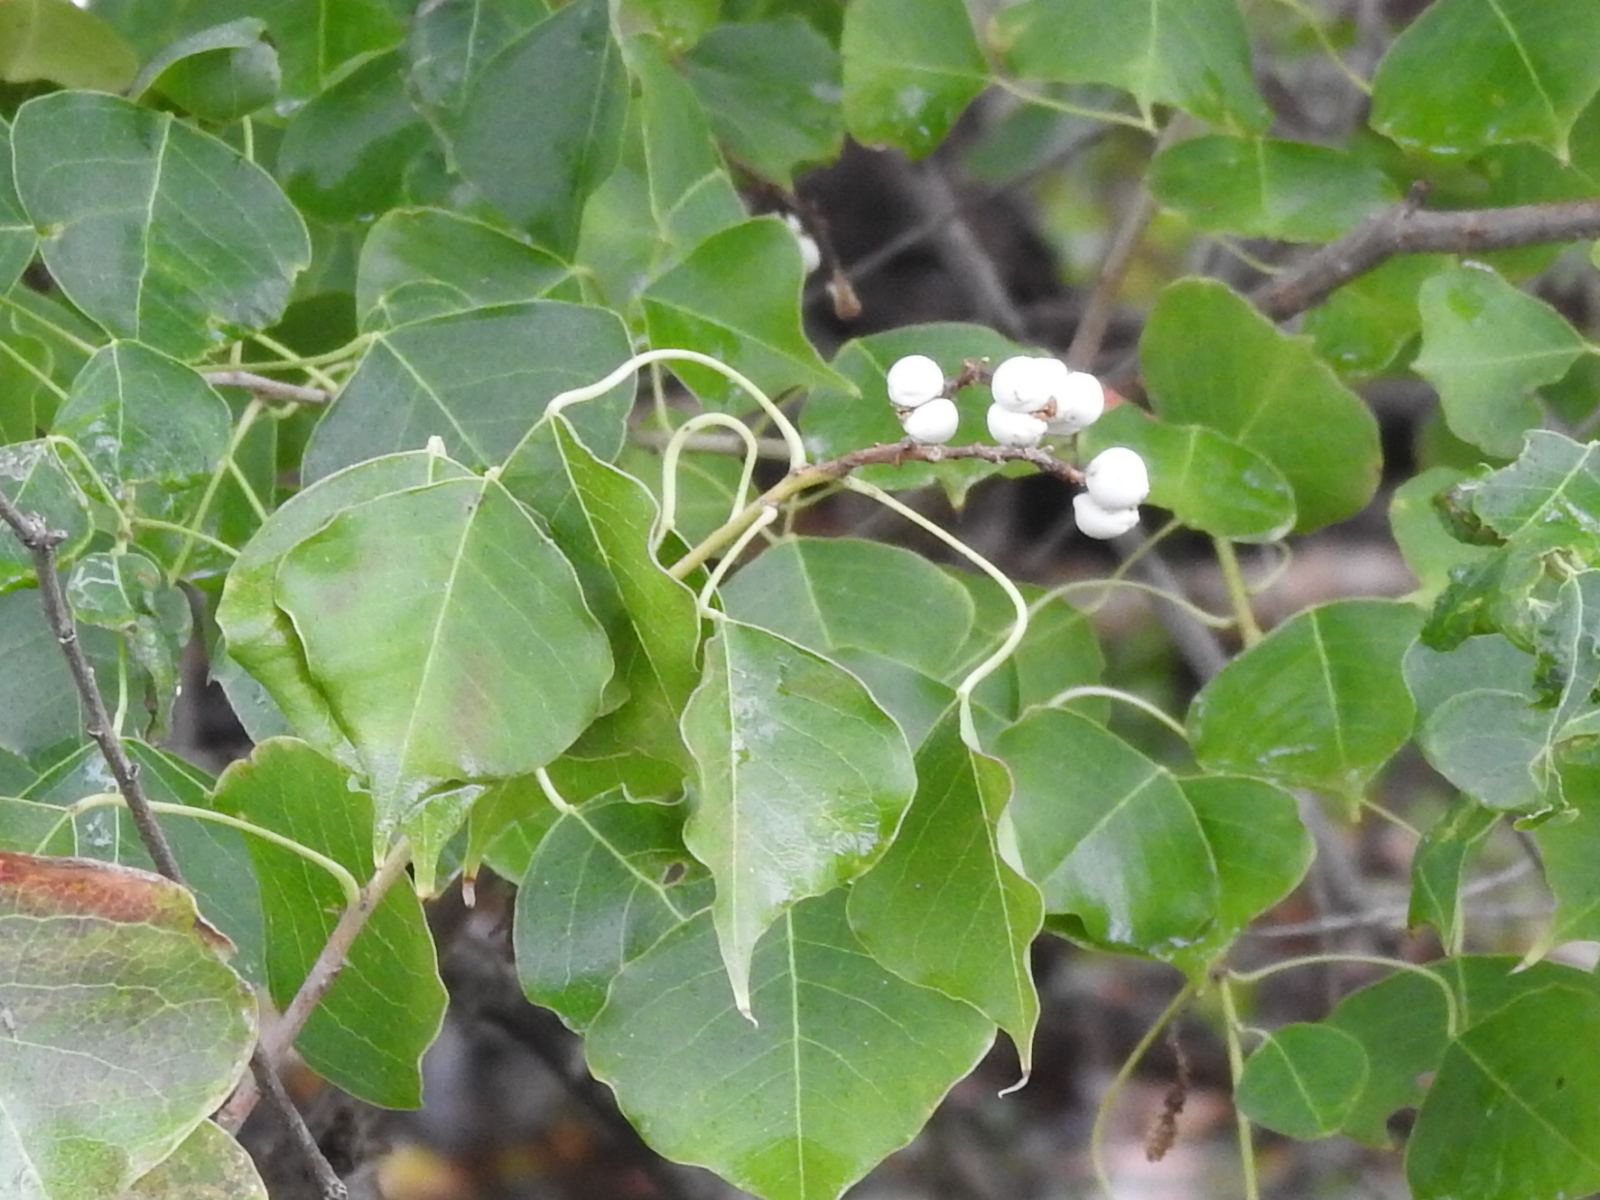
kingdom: Plantae
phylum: Tracheophyta
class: Magnoliopsida
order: Malpighiales
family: Euphorbiaceae
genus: Triadica
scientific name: Triadica sebifera
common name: Chinese tallow
